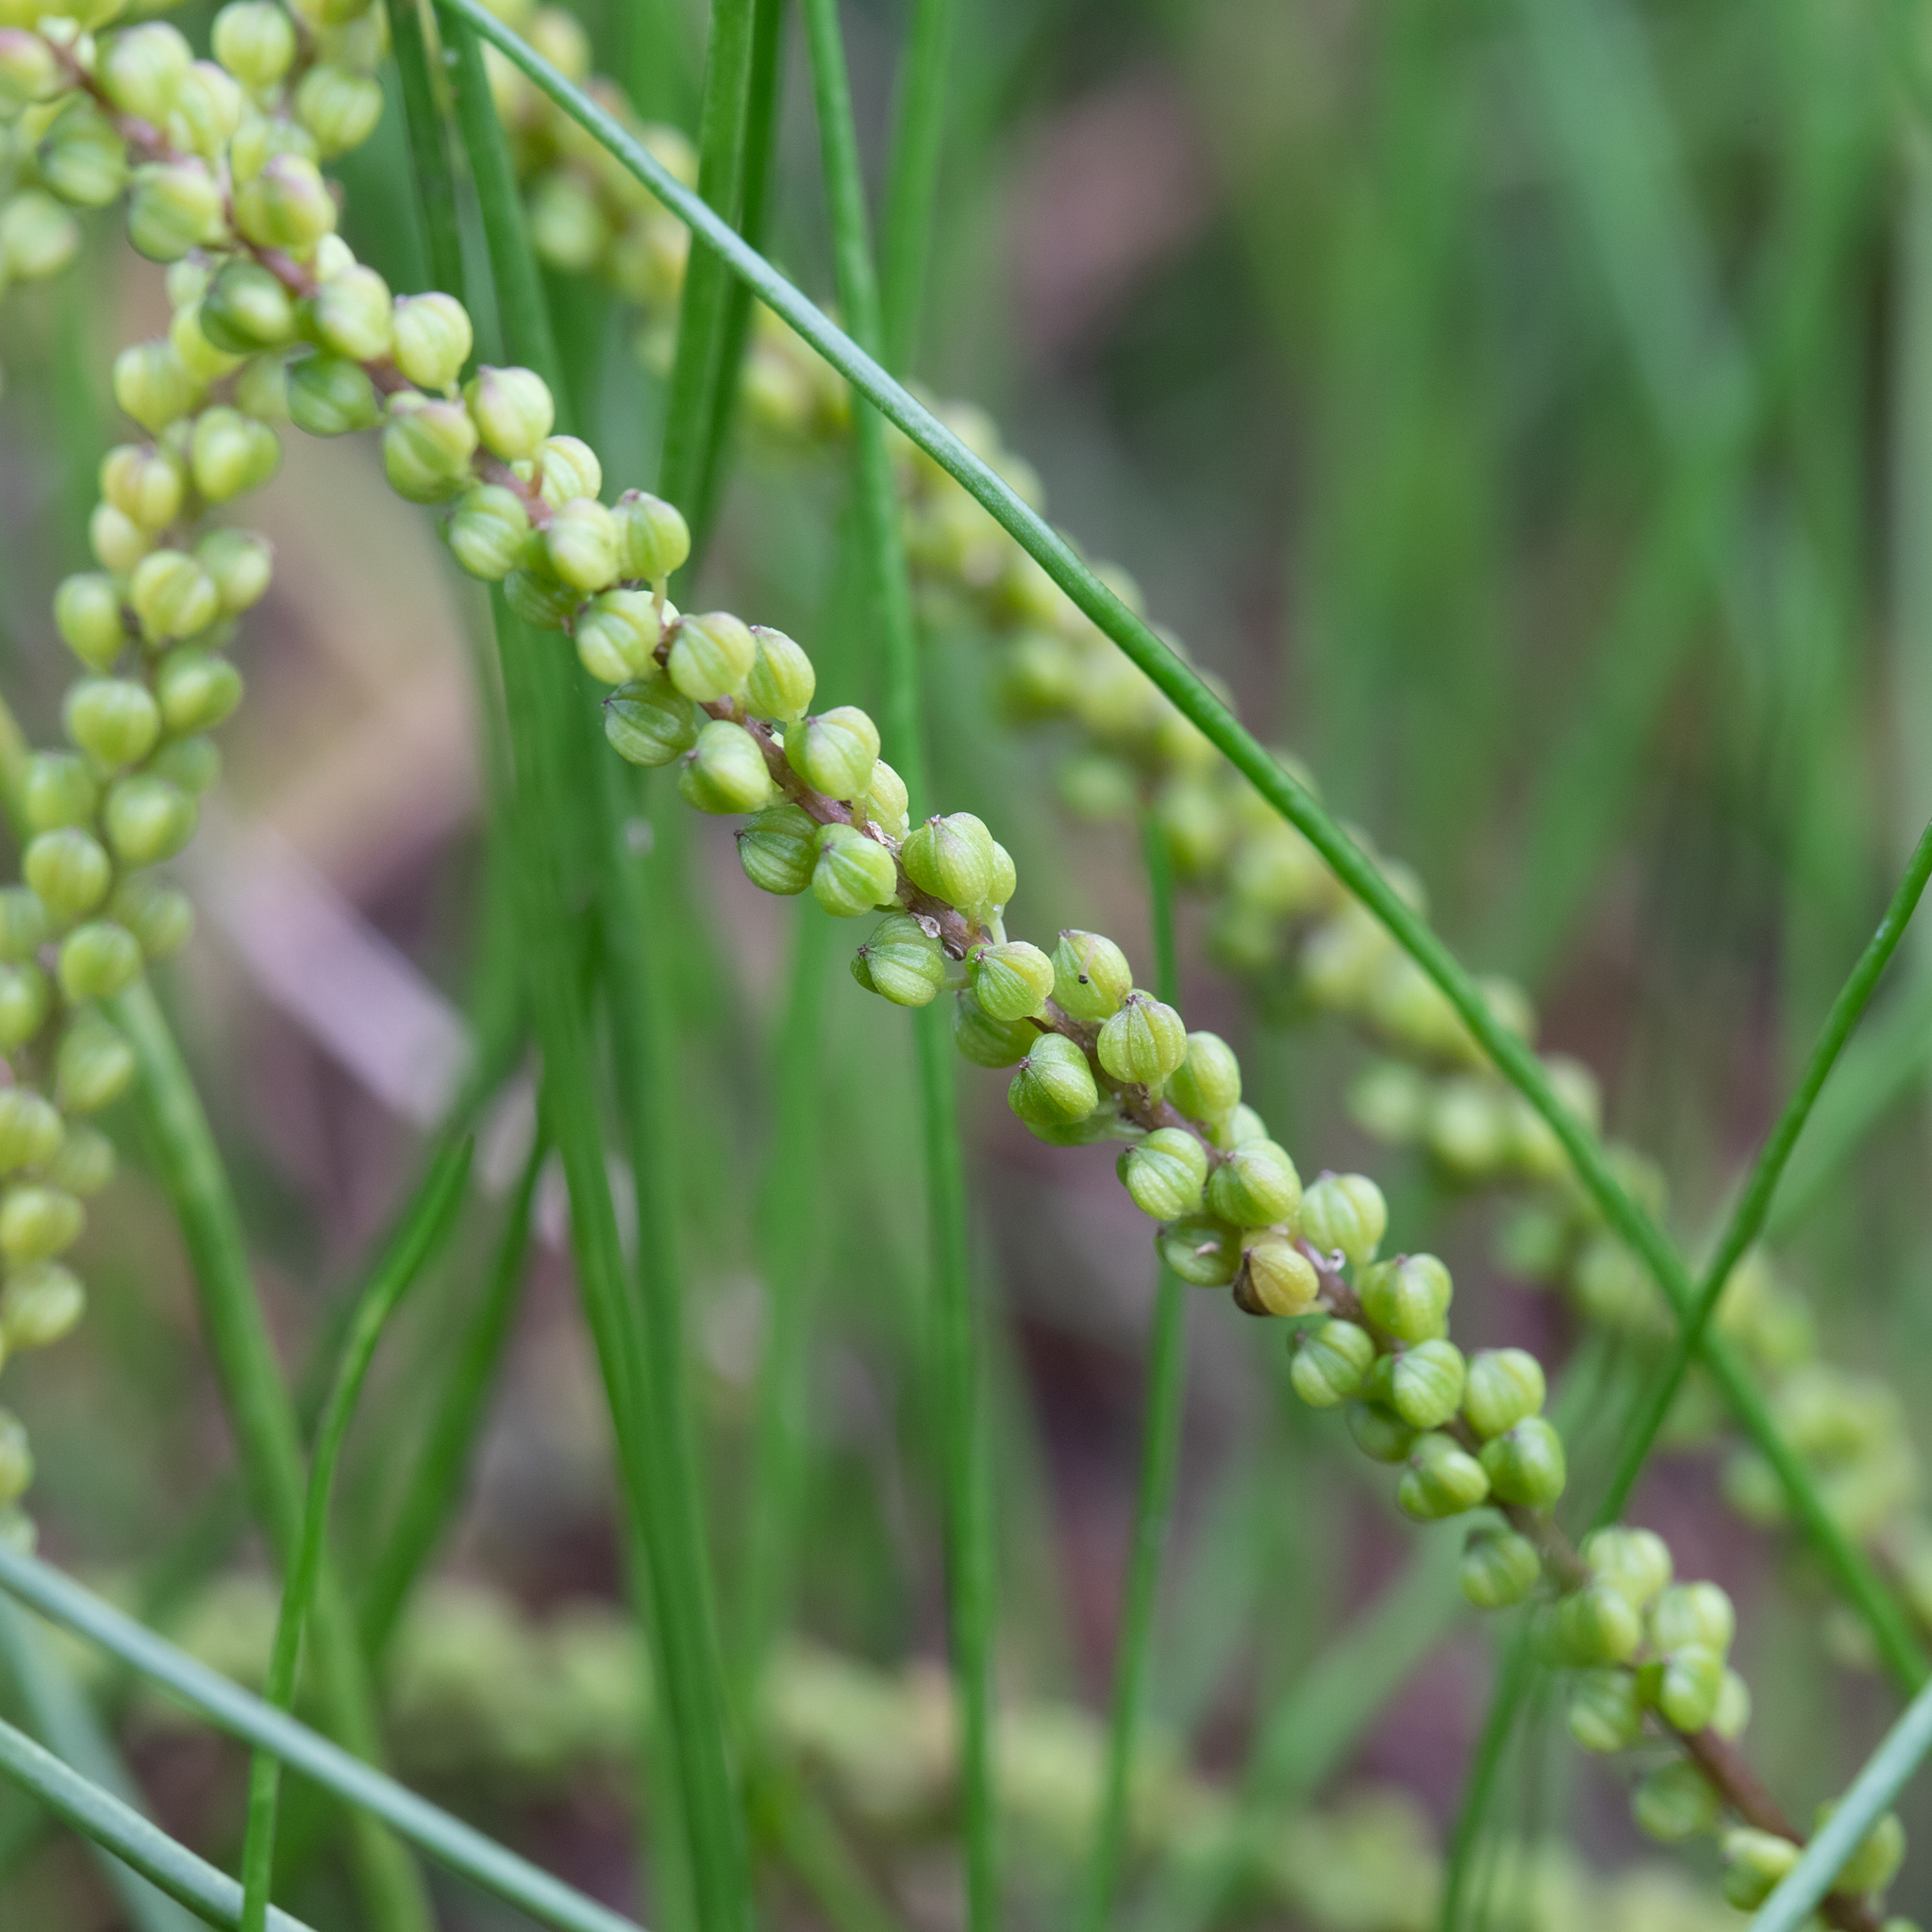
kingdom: Plantae
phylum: Tracheophyta
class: Liliopsida
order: Alismatales
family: Juncaginaceae
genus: Triglochin
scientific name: Triglochin striata
